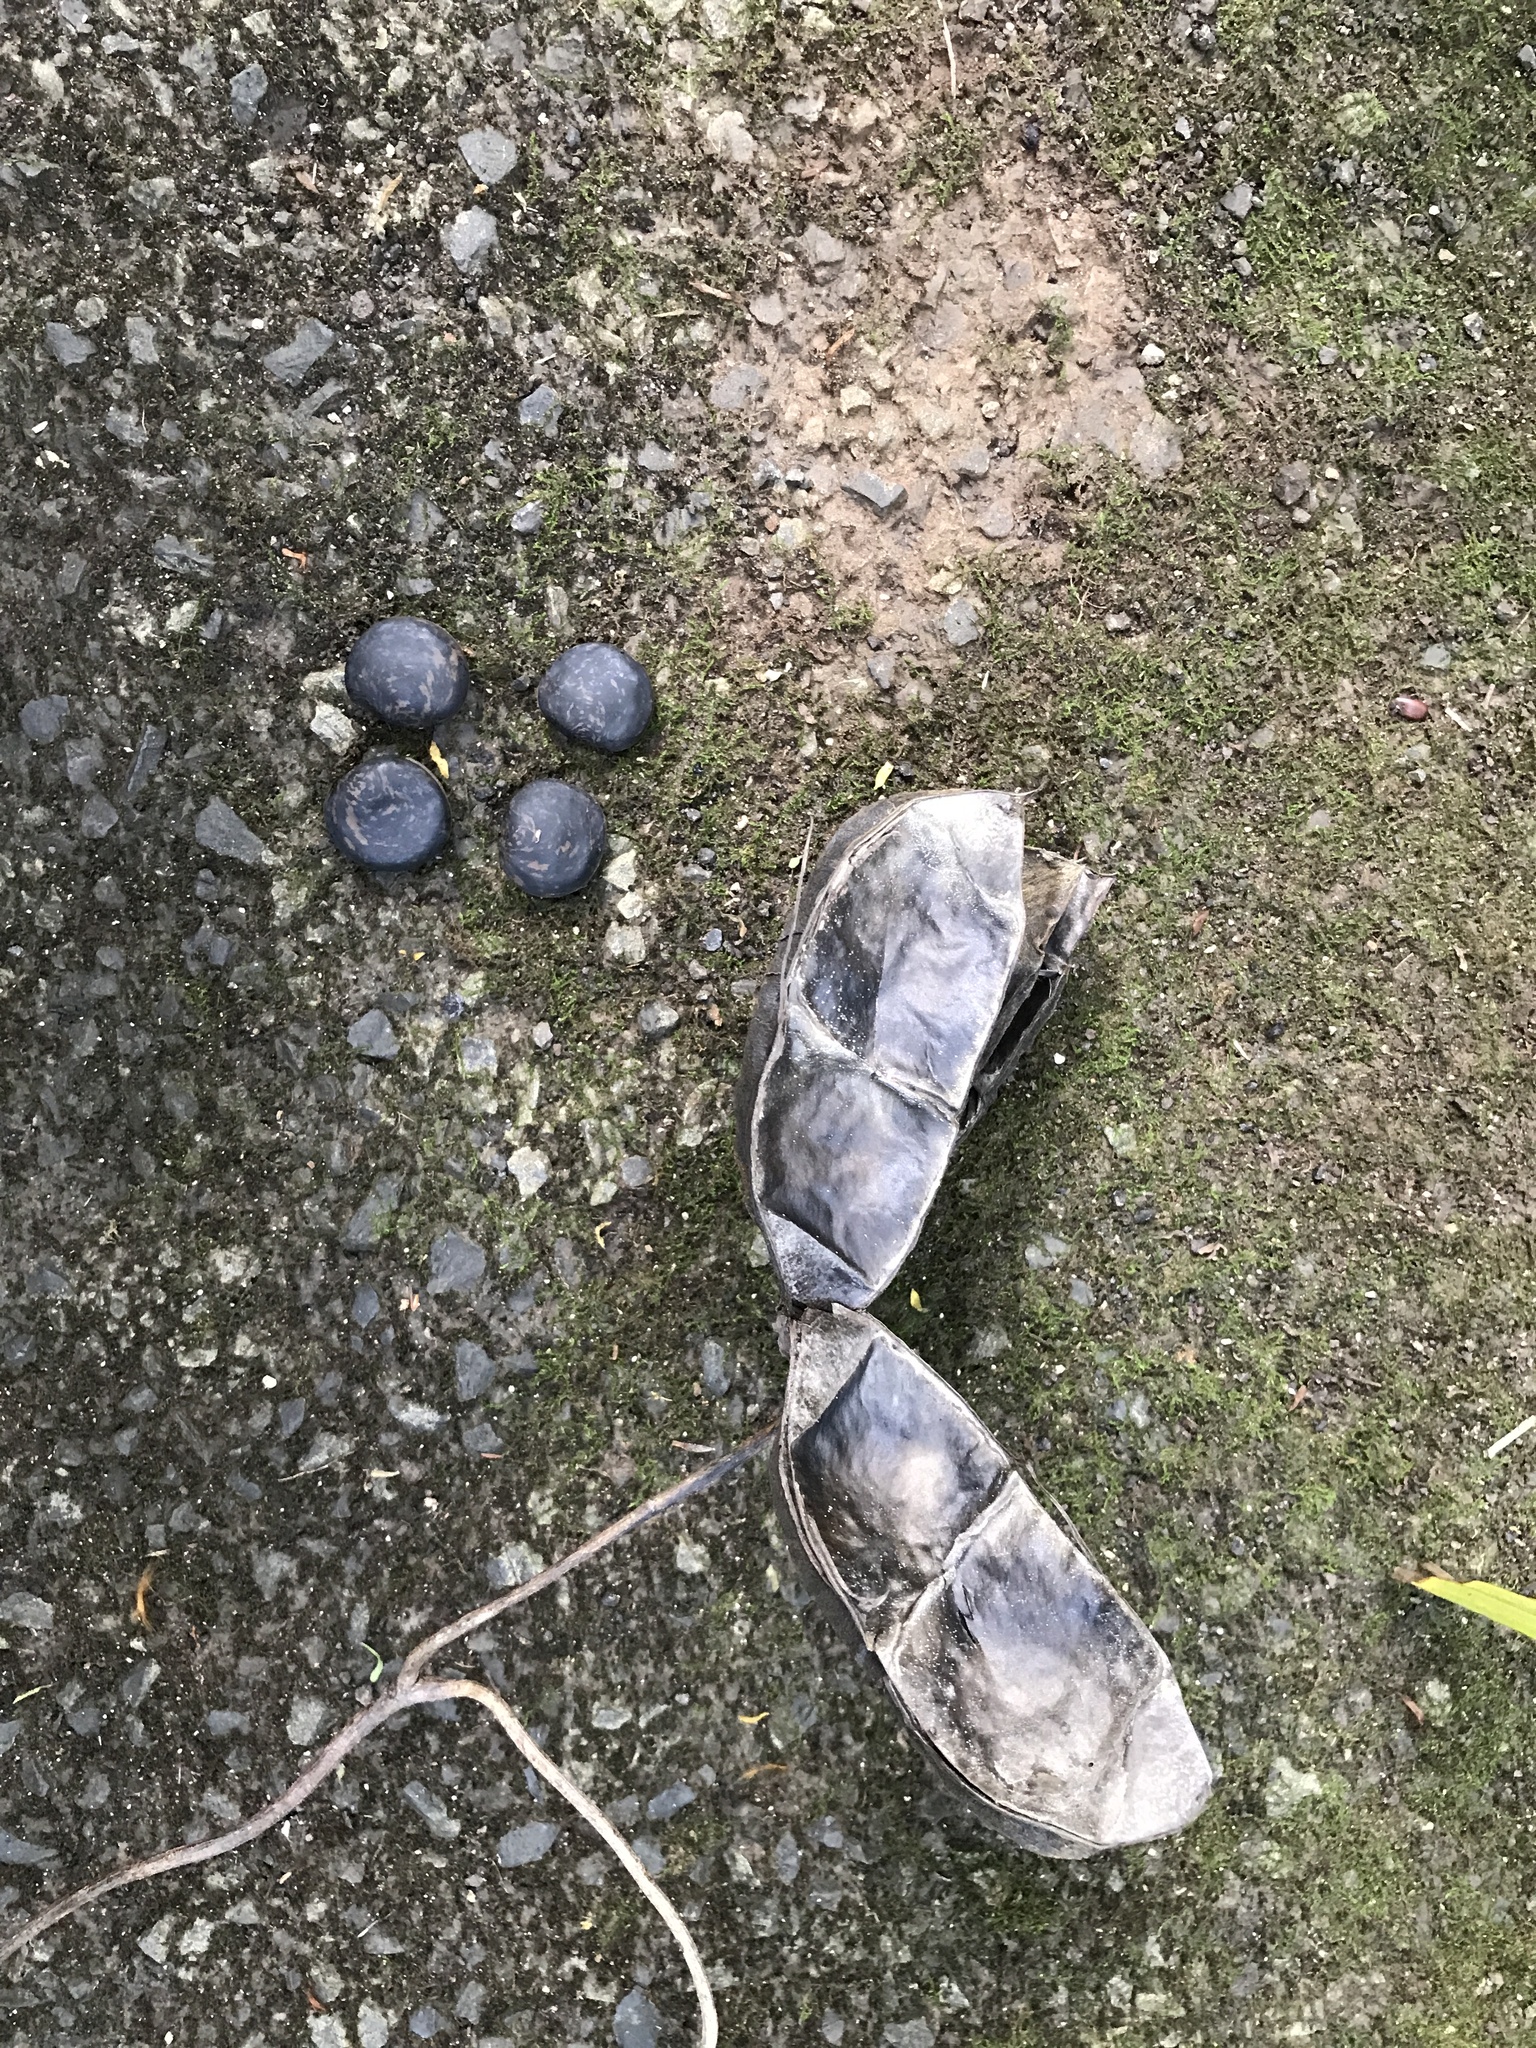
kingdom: Plantae
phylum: Tracheophyta
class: Magnoliopsida
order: Fabales
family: Fabaceae
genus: Mucuna
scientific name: Mucuna gigantea
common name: Black-bean
